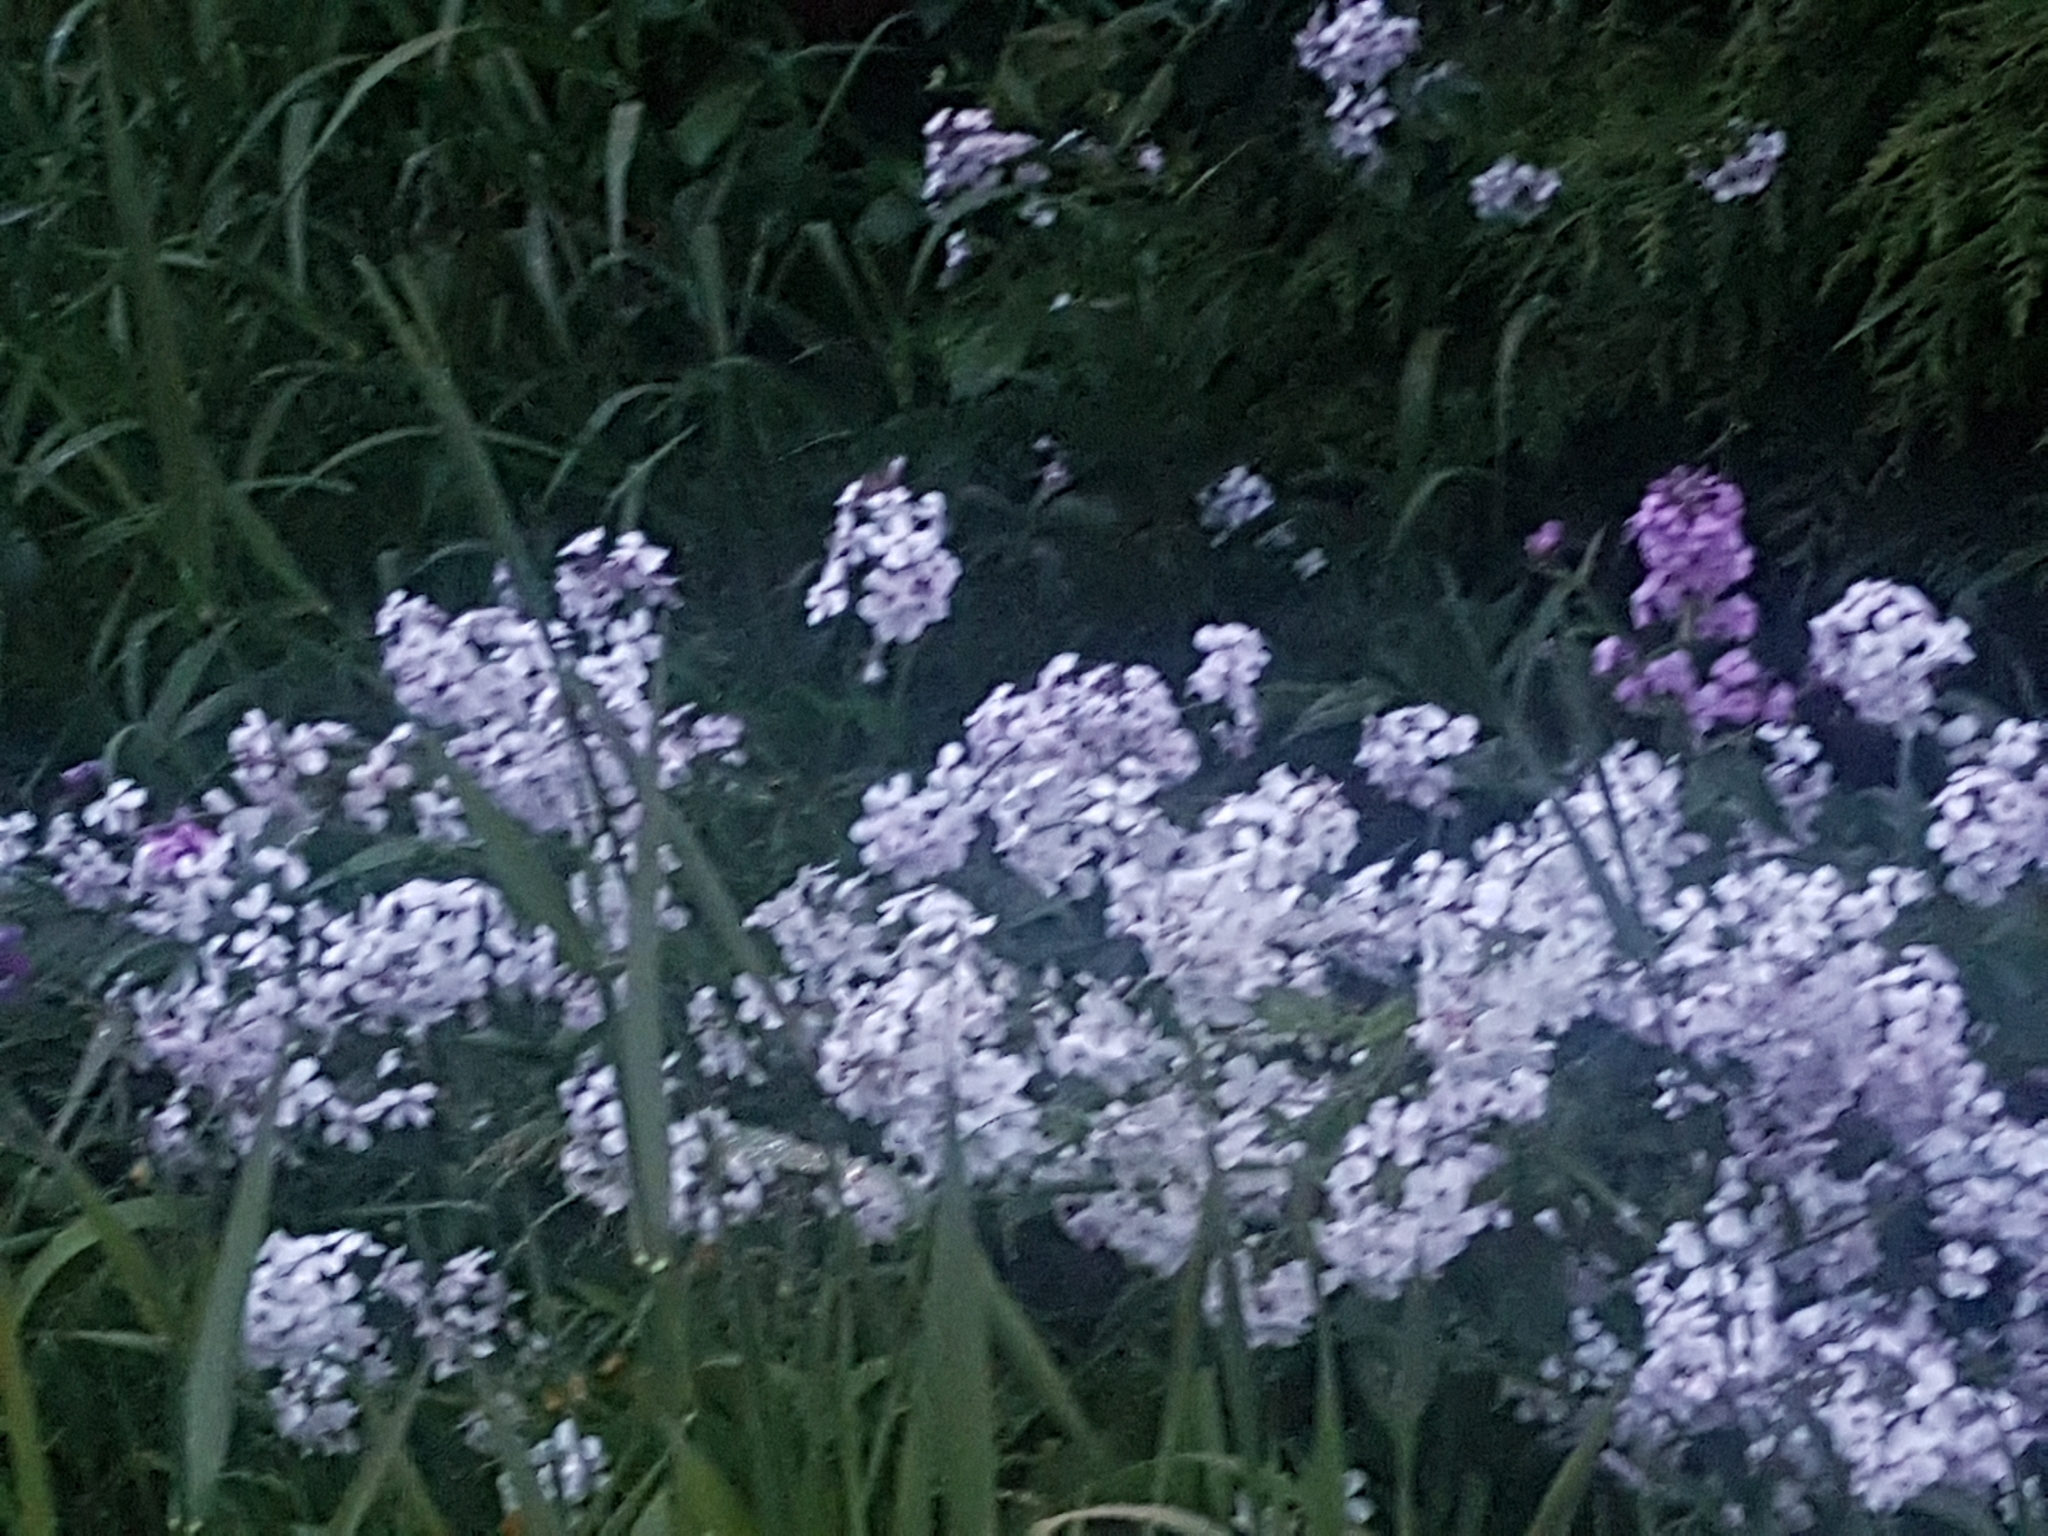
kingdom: Plantae
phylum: Tracheophyta
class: Magnoliopsida
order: Brassicales
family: Brassicaceae
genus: Hesperis
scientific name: Hesperis matronalis
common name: Dame's-violet
